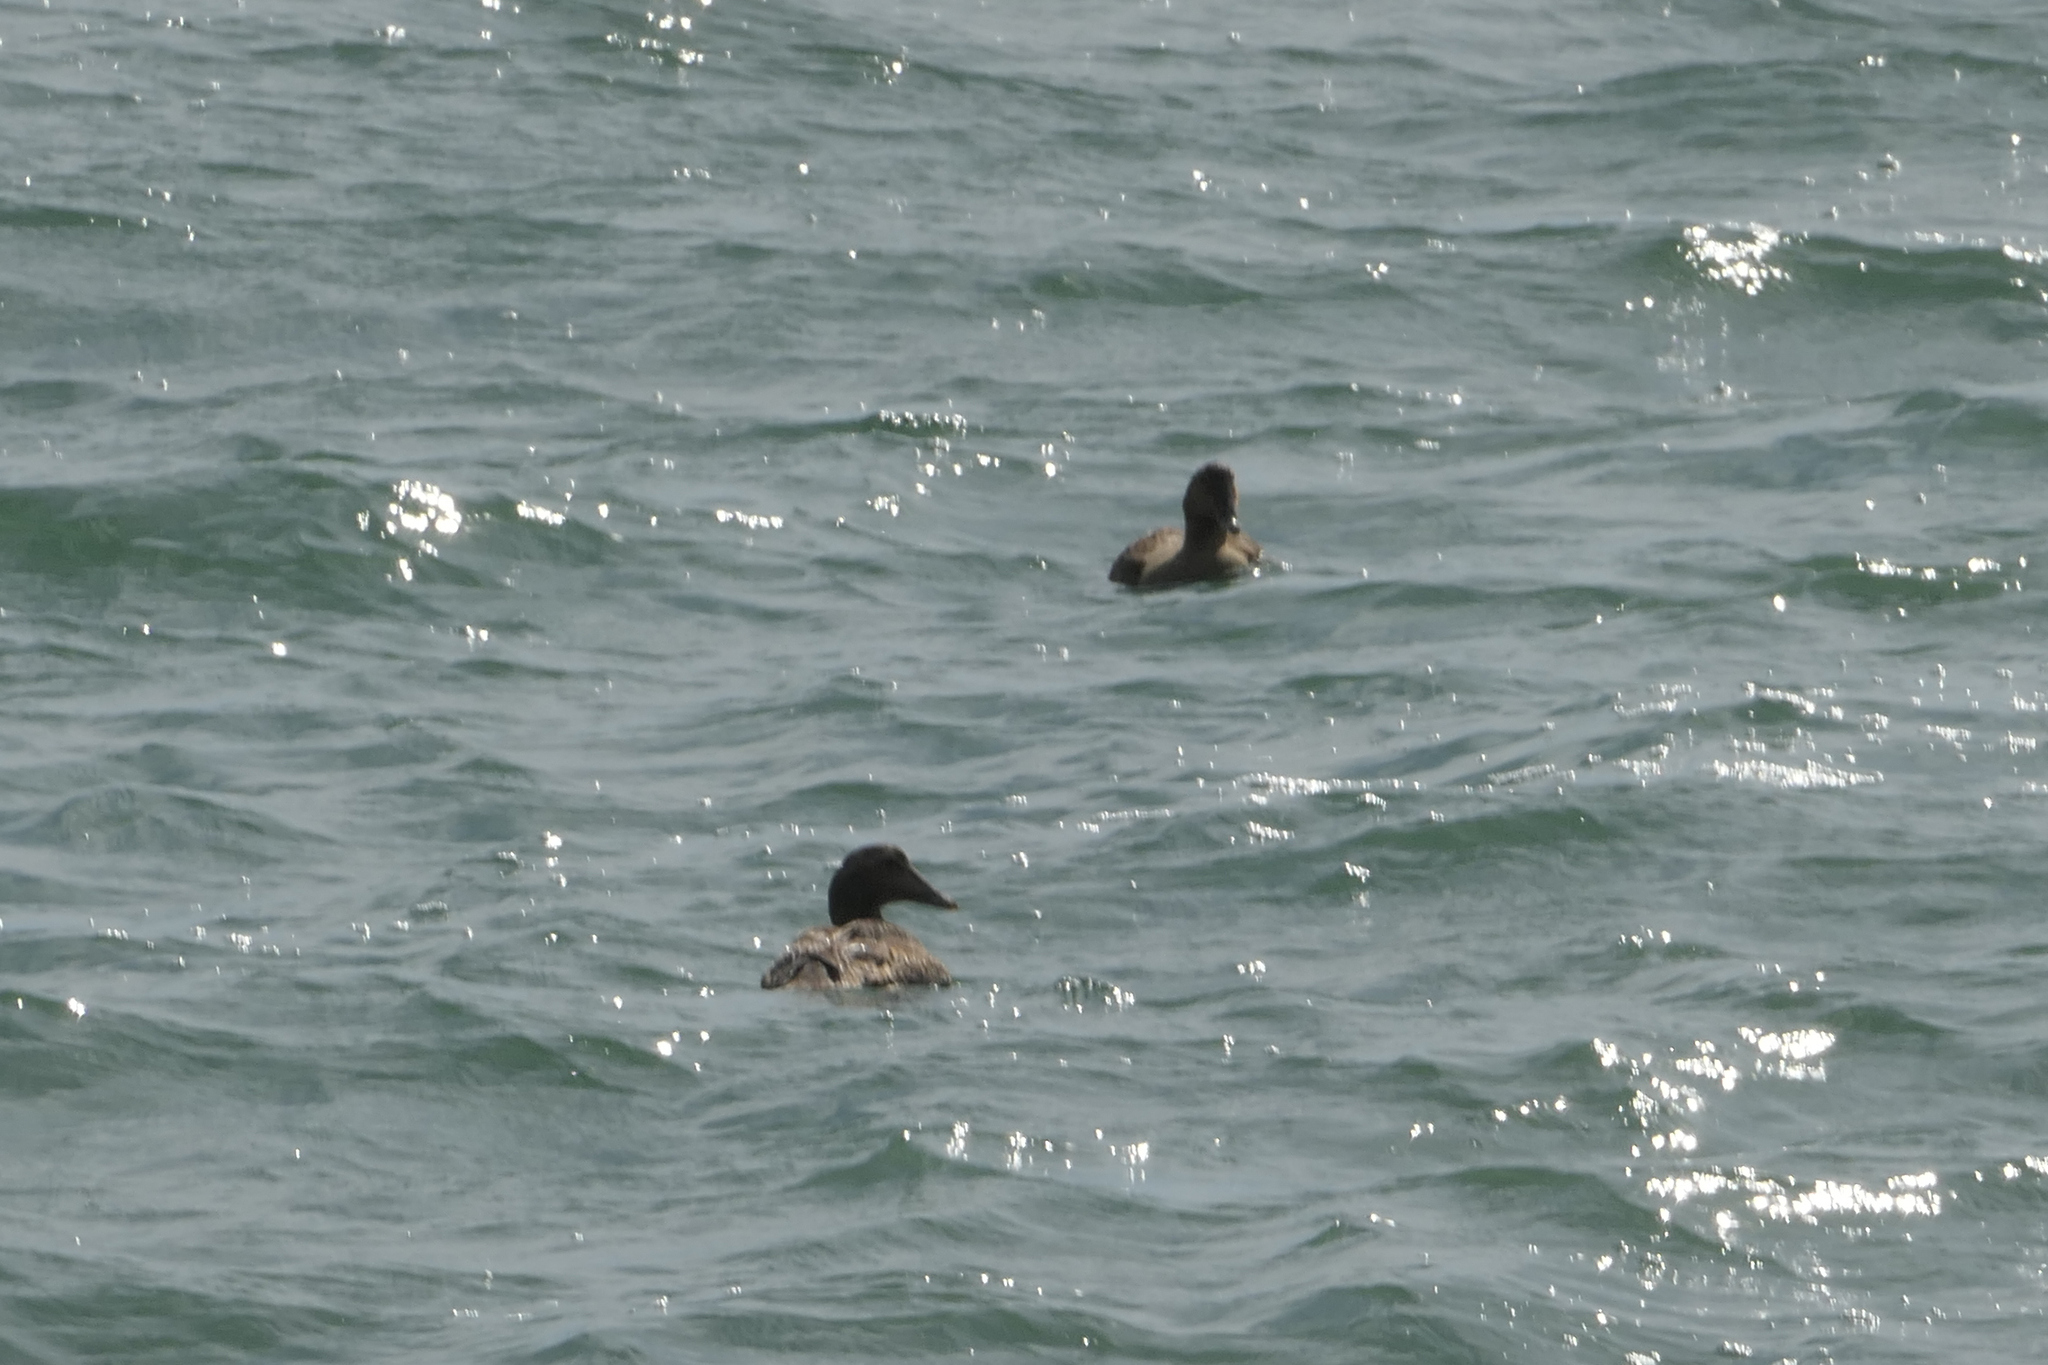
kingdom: Animalia
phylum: Chordata
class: Aves
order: Anseriformes
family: Anatidae
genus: Somateria
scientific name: Somateria mollissima
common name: Common eider
